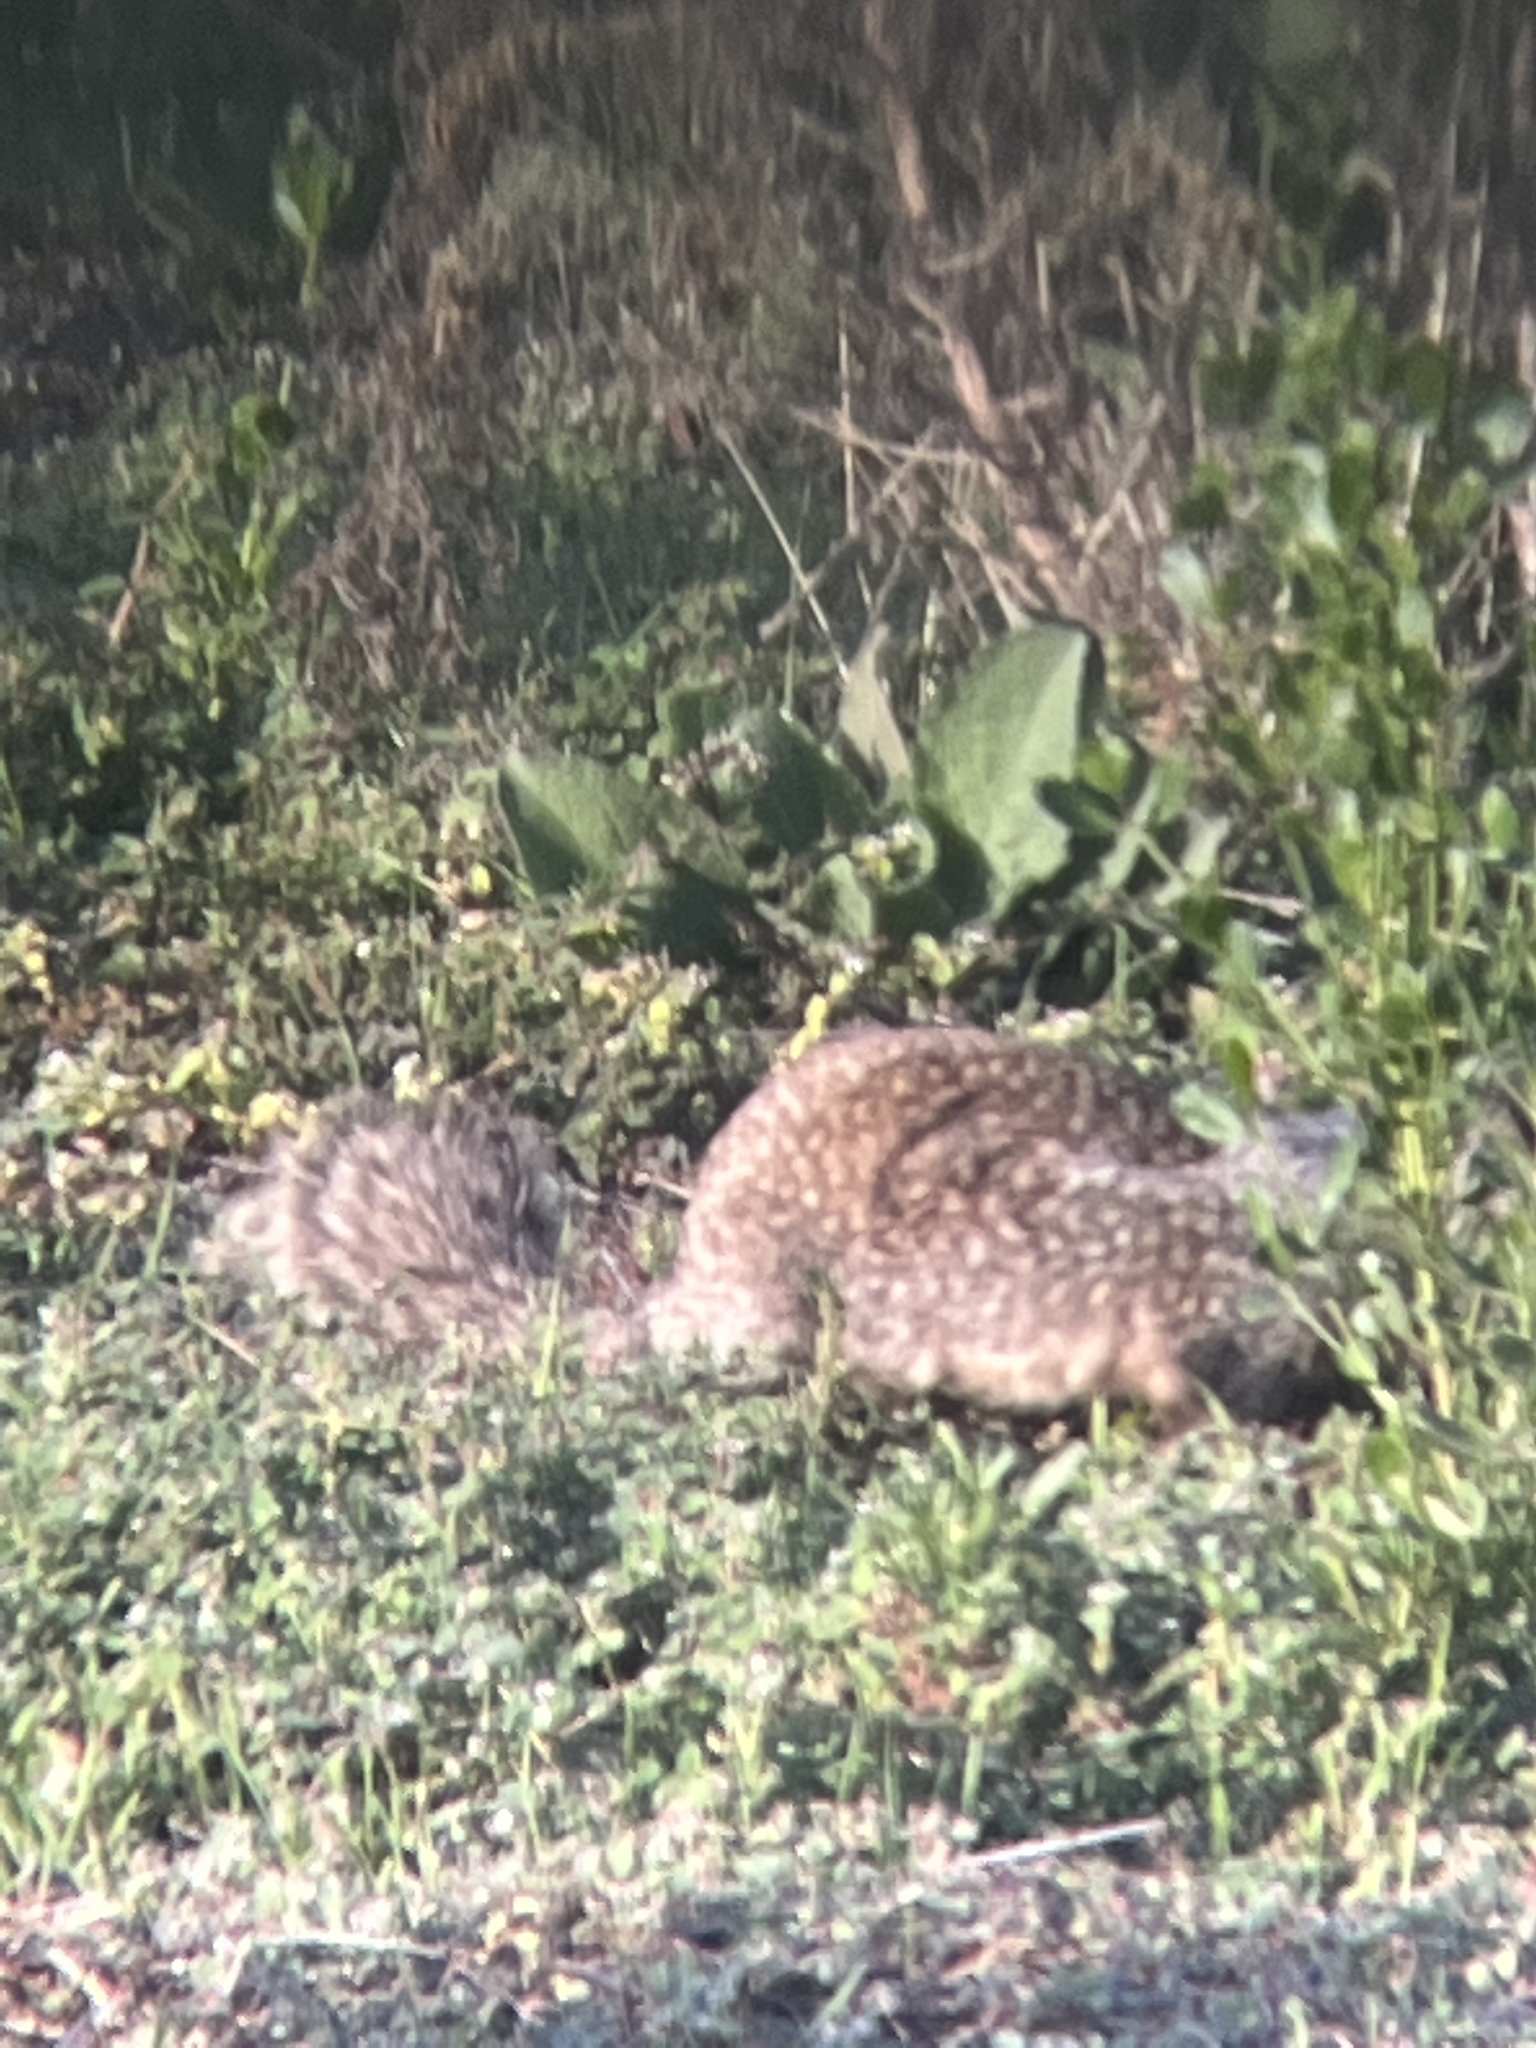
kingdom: Animalia
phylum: Chordata
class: Mammalia
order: Rodentia
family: Sciuridae
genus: Otospermophilus
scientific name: Otospermophilus beecheyi
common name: California ground squirrel
